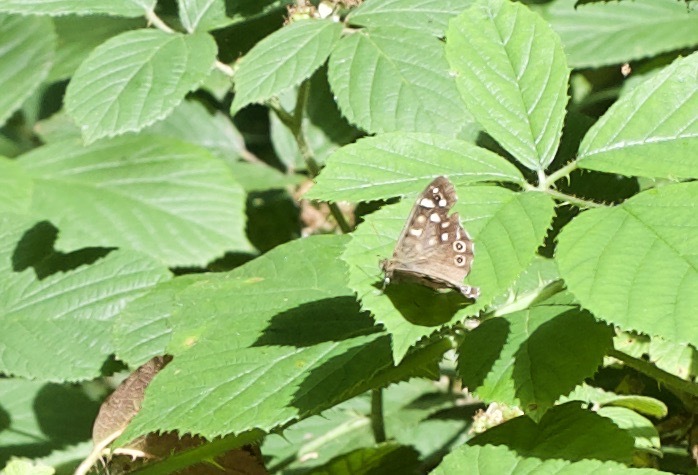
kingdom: Animalia
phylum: Arthropoda
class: Insecta
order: Lepidoptera
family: Nymphalidae
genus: Pararge
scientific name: Pararge aegeria
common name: Speckled wood
